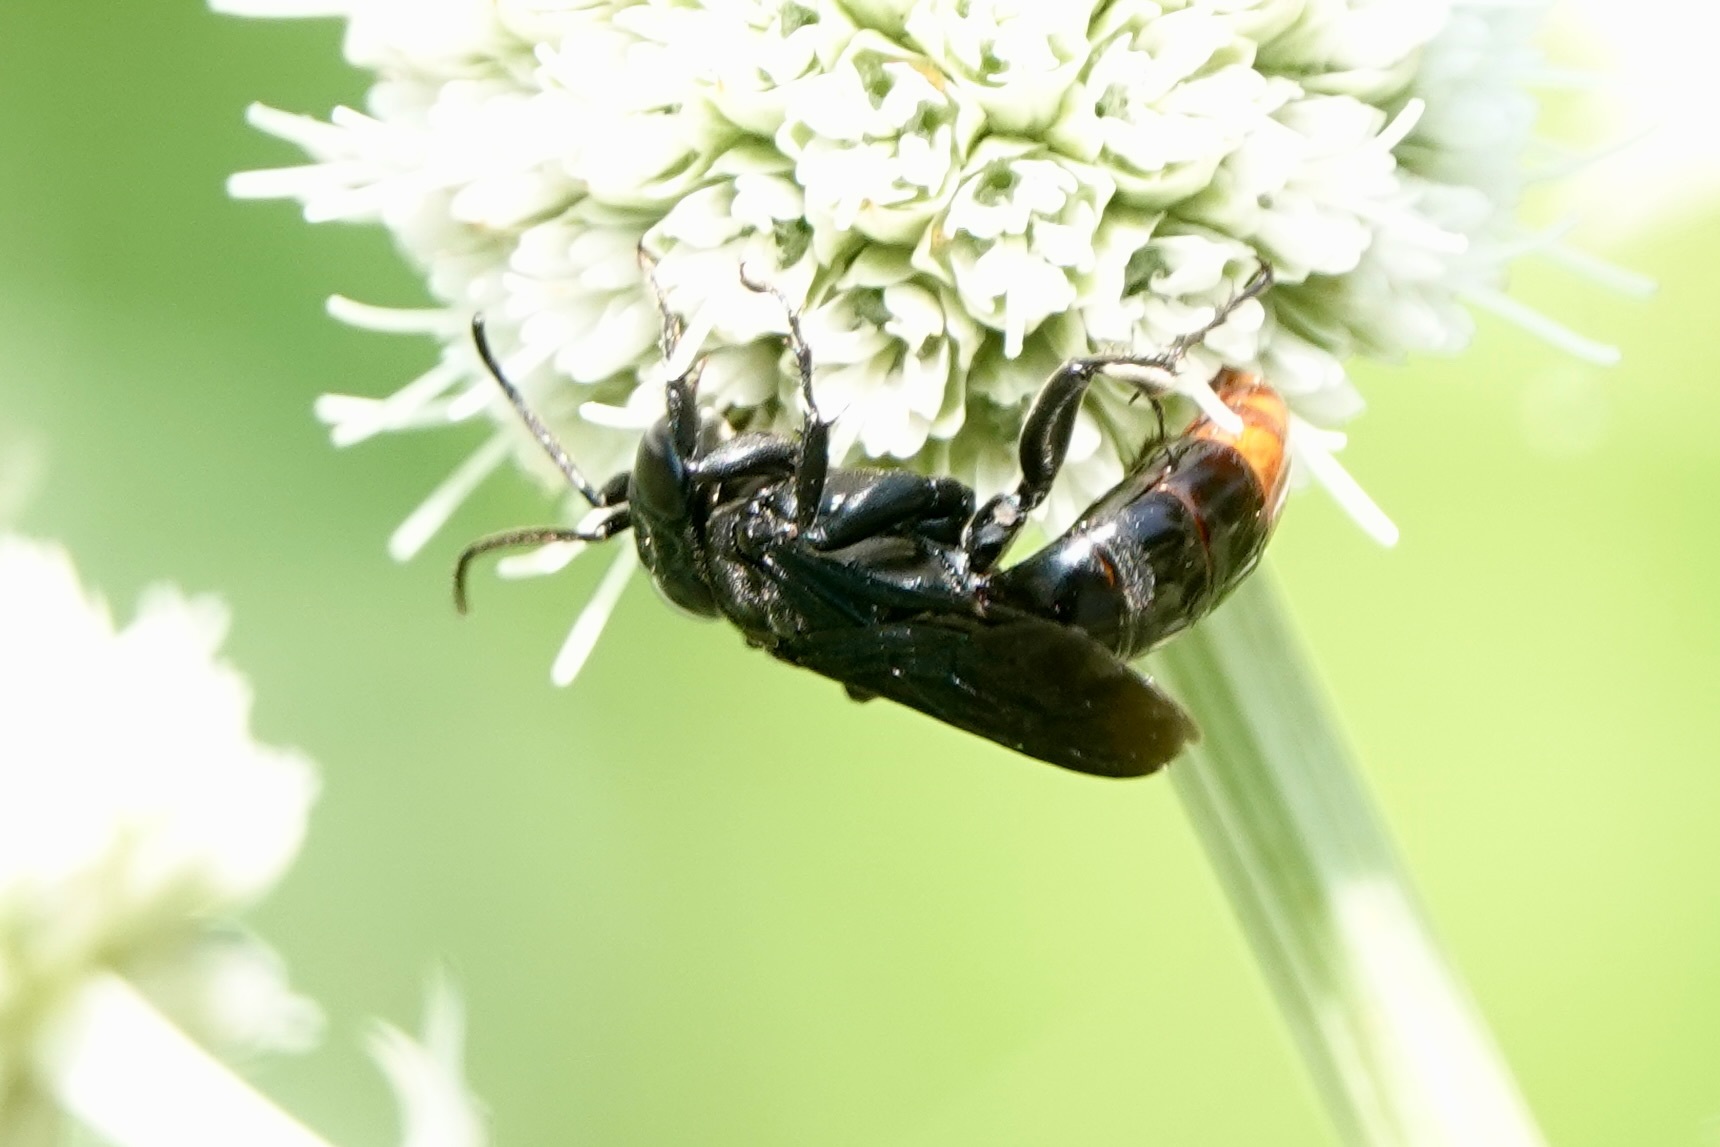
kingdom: Animalia
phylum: Arthropoda
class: Insecta
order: Hymenoptera
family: Crabronidae
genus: Larra
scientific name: Larra analis
